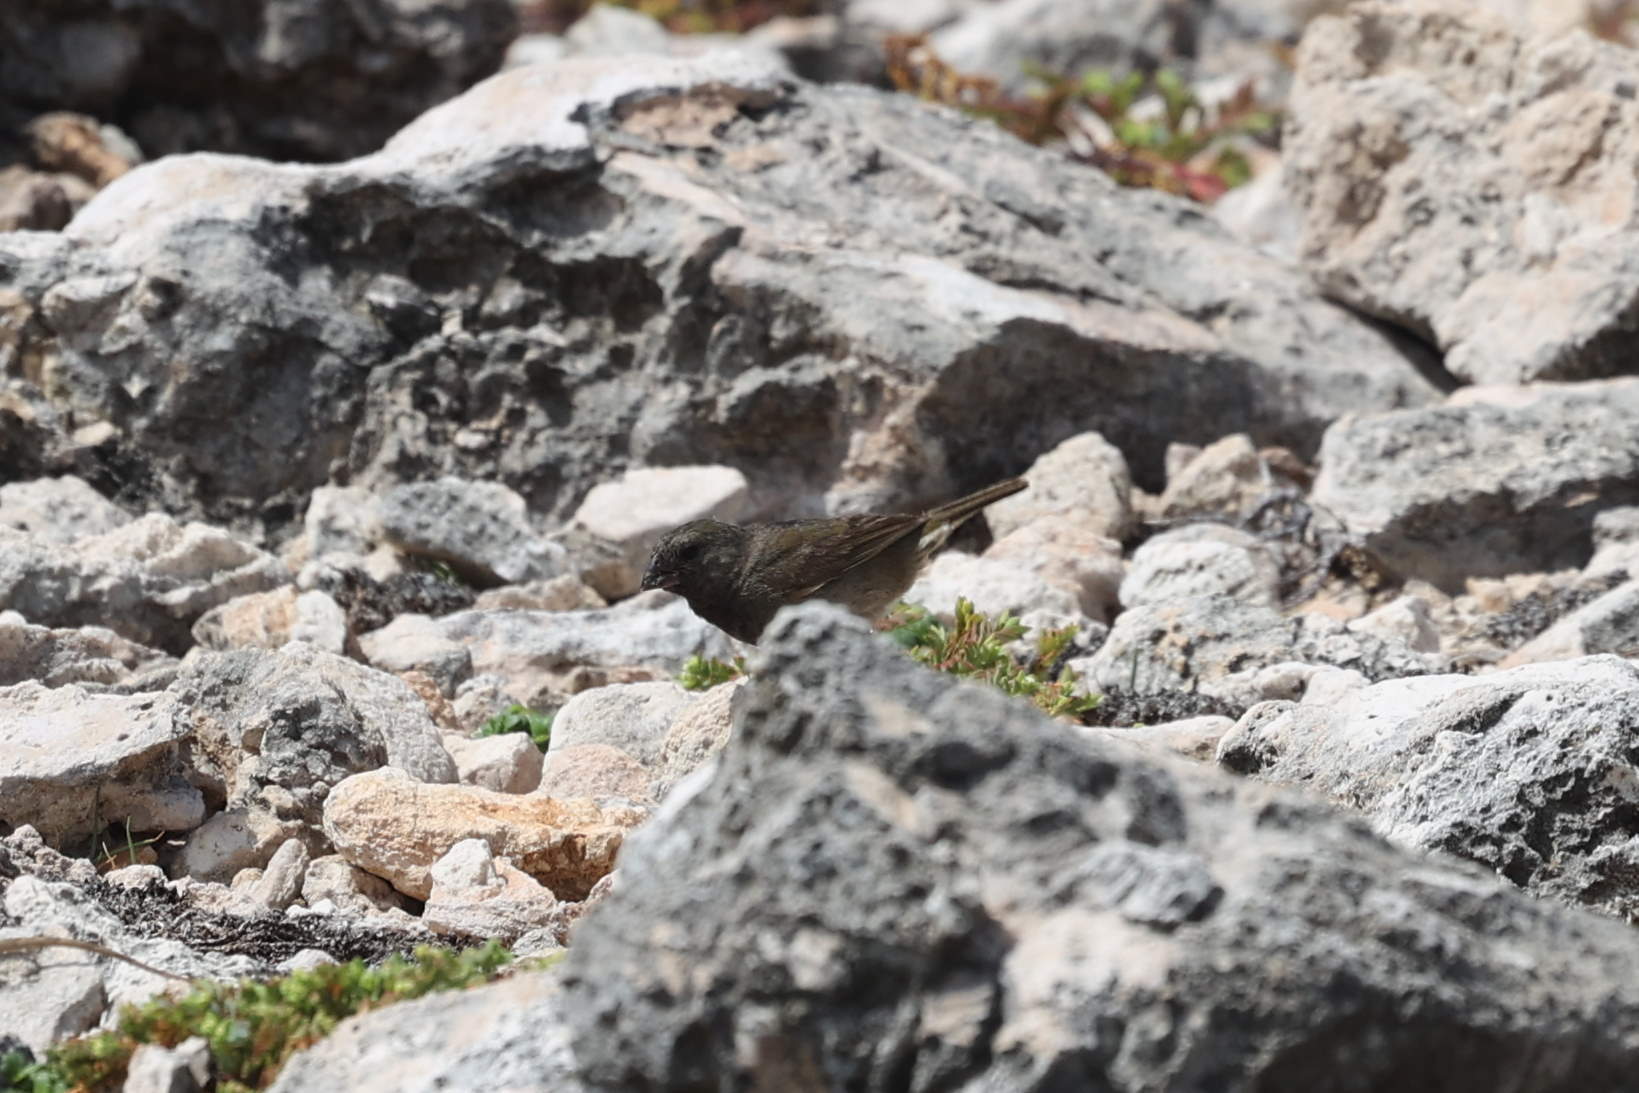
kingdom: Animalia
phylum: Chordata
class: Aves
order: Passeriformes
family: Thraupidae
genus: Melanospiza
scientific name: Melanospiza bicolor
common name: Black-faced grassquit
